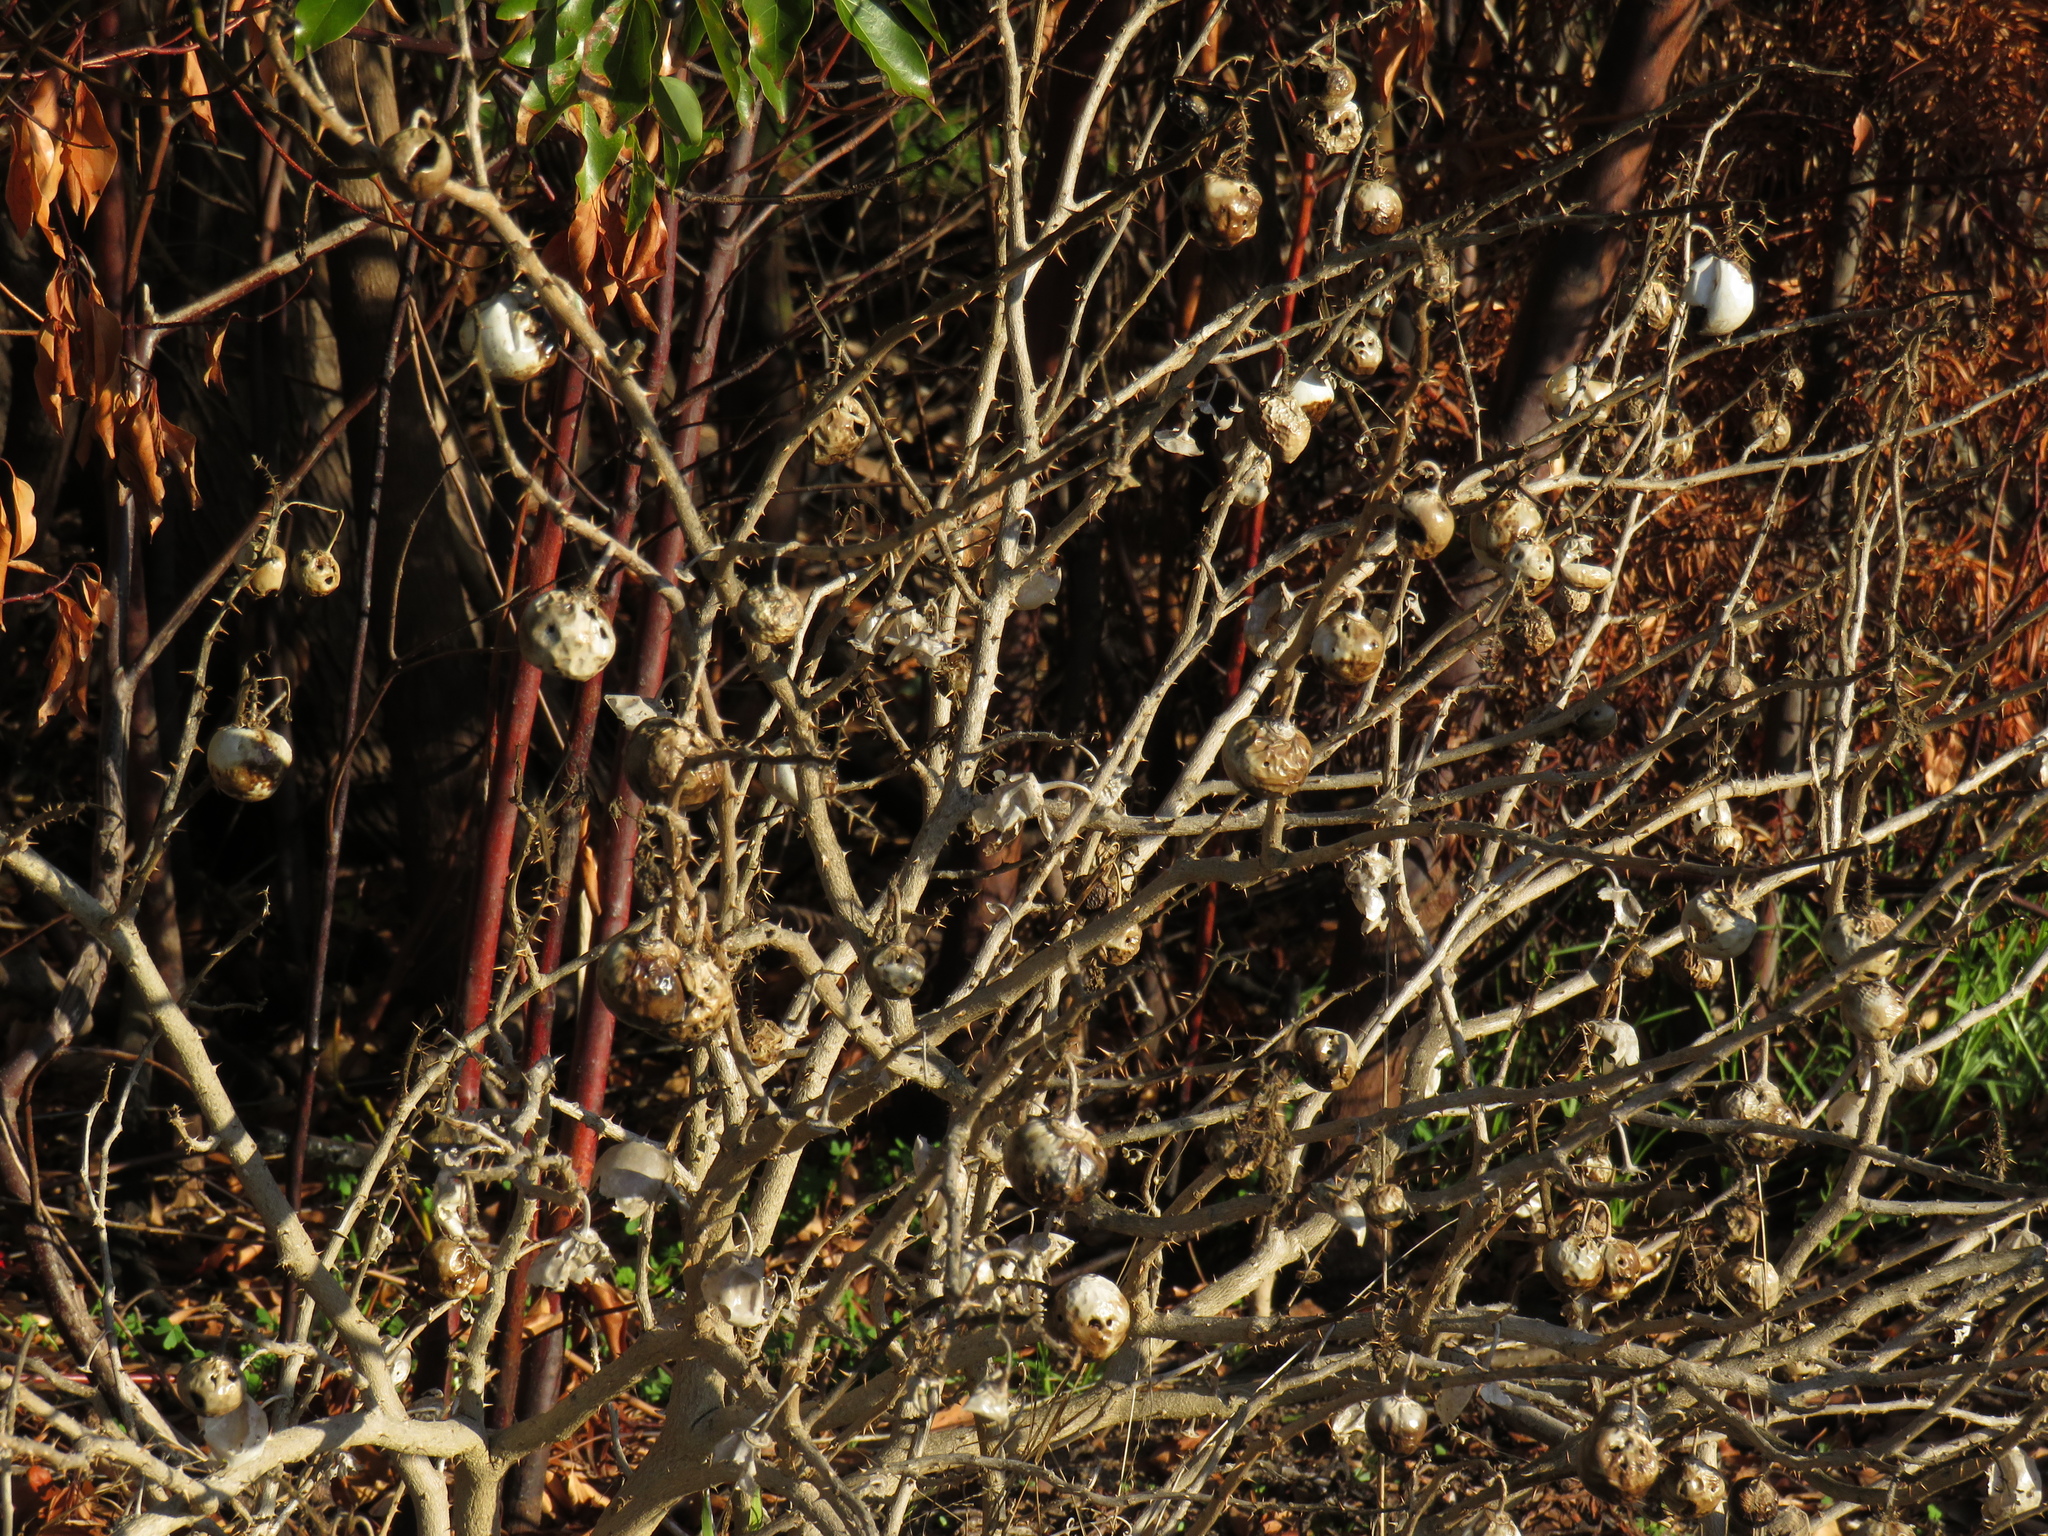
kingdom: Plantae
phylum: Tracheophyta
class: Magnoliopsida
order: Solanales
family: Solanaceae
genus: Solanum
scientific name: Solanum linnaeanum
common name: Nightshade
